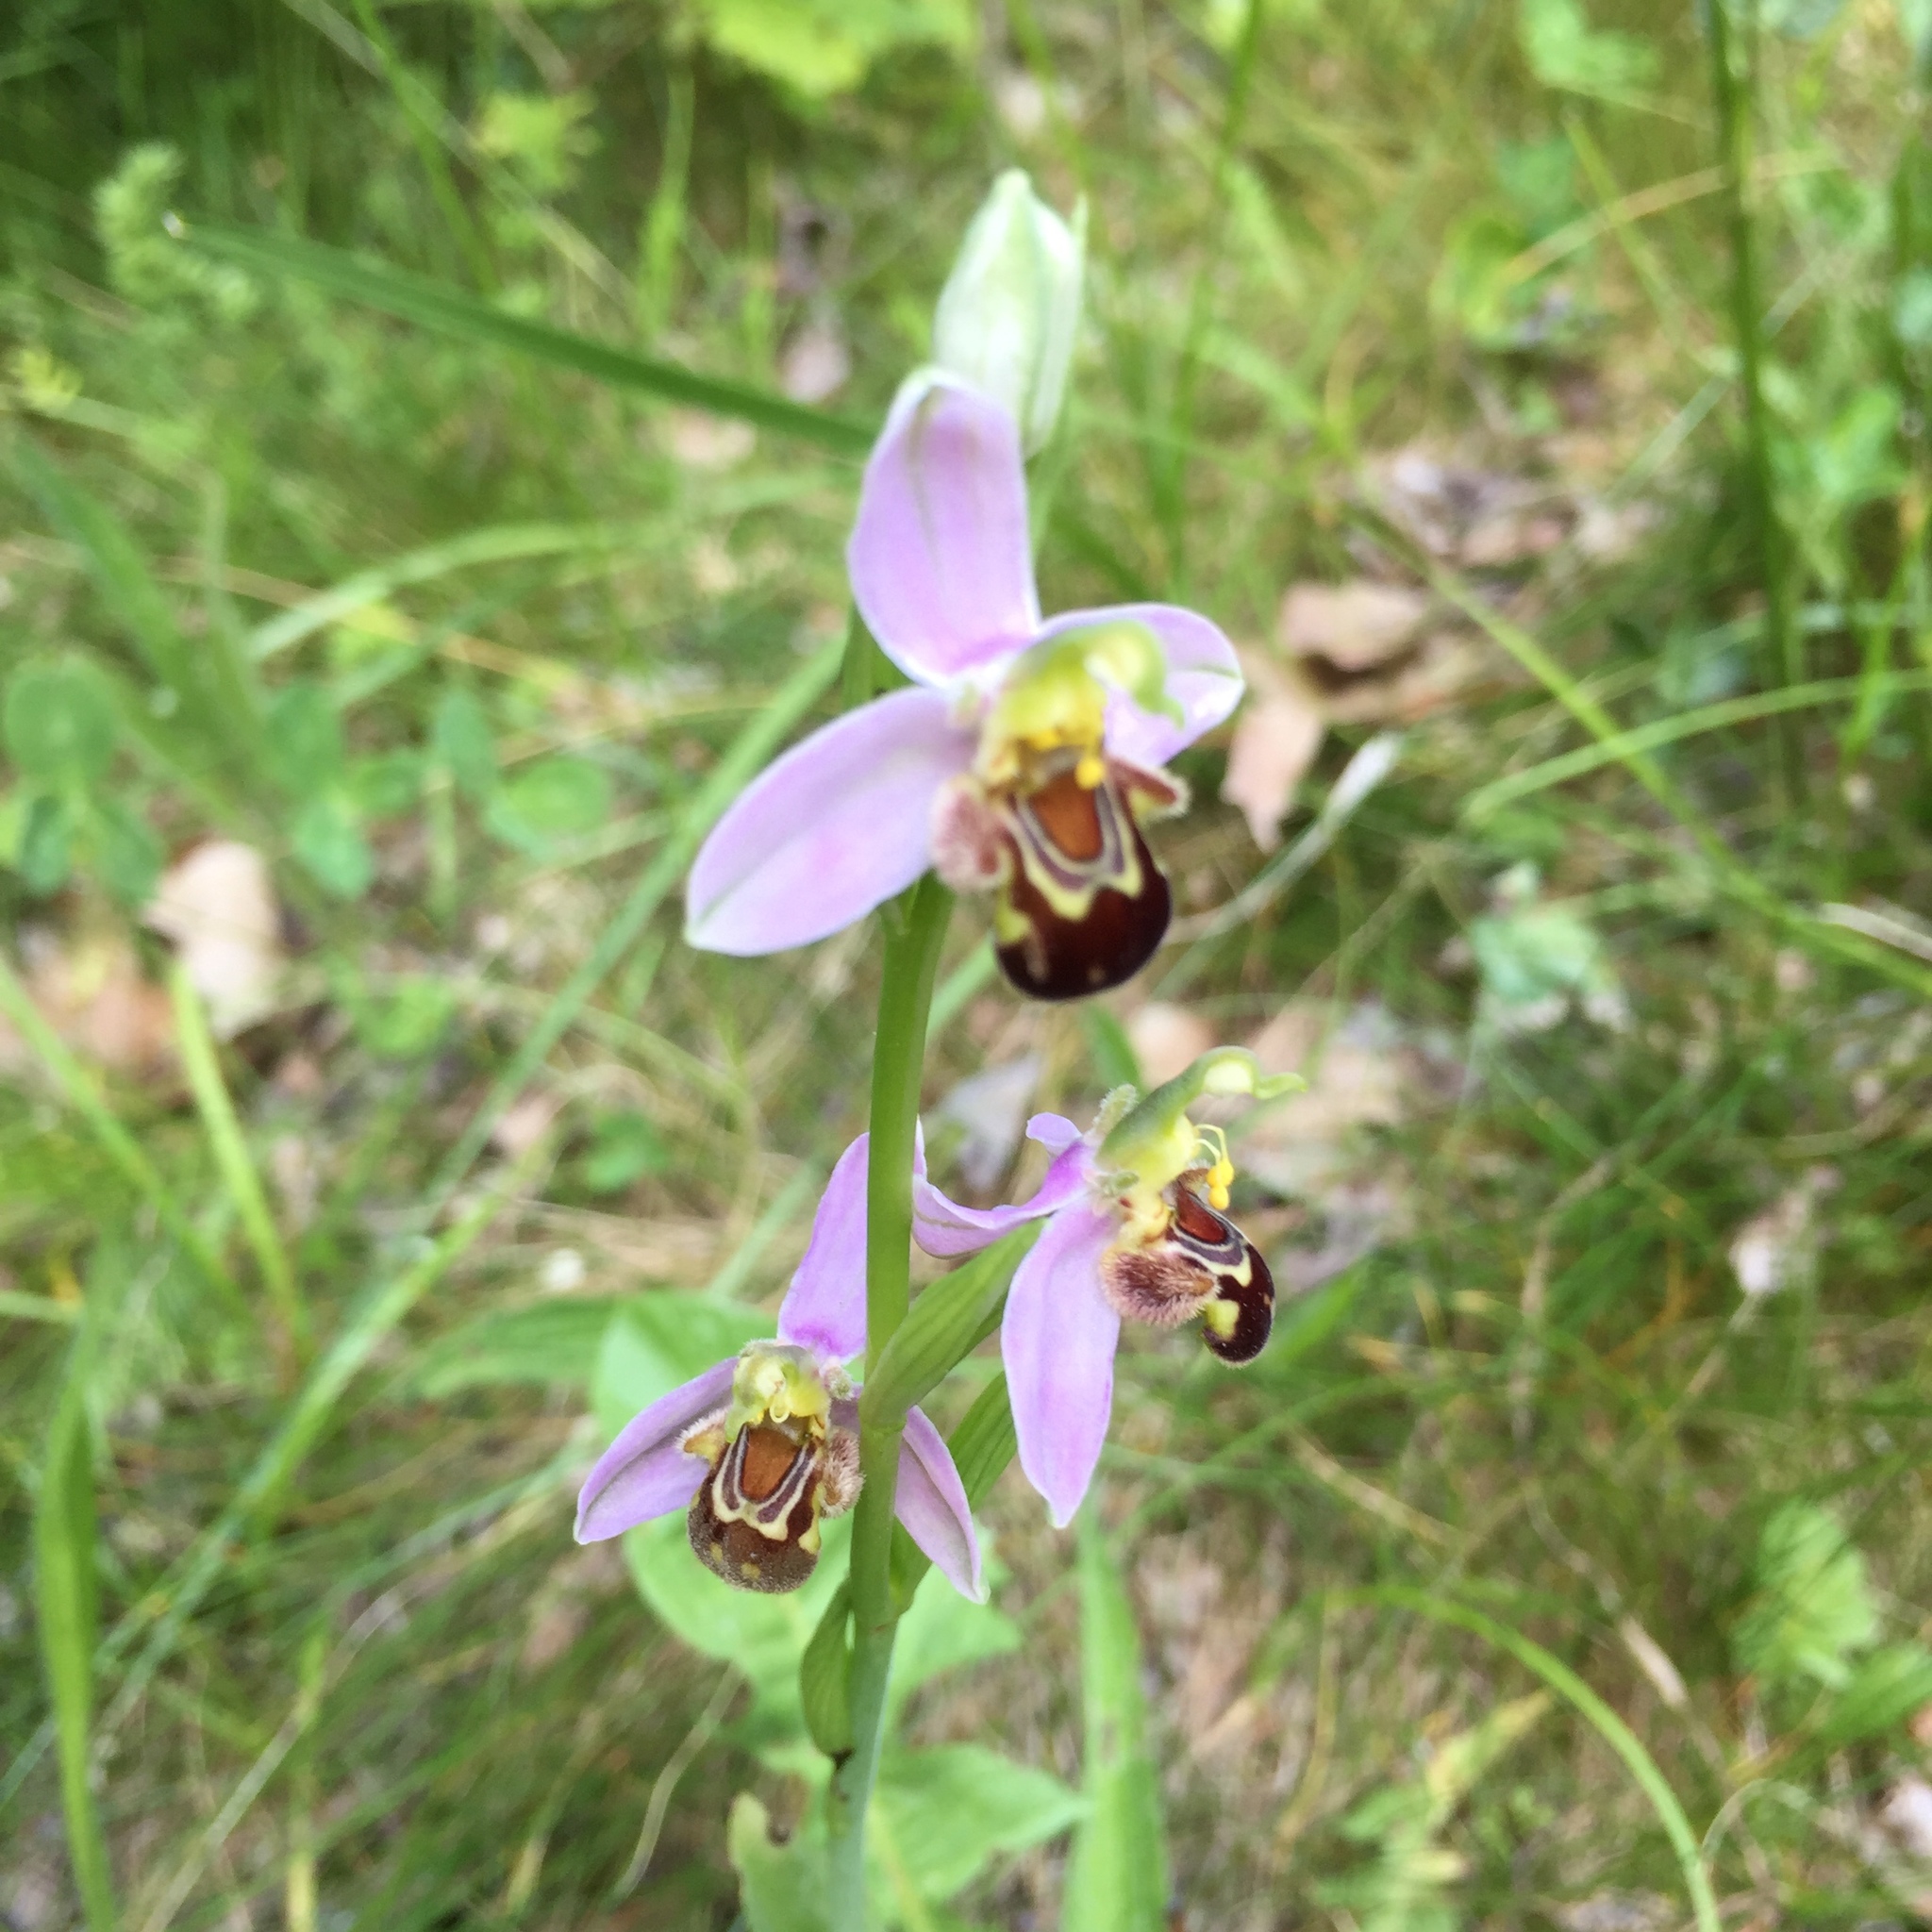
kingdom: Plantae
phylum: Tracheophyta
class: Liliopsida
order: Asparagales
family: Orchidaceae
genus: Ophrys
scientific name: Ophrys apifera
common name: Bee orchid
